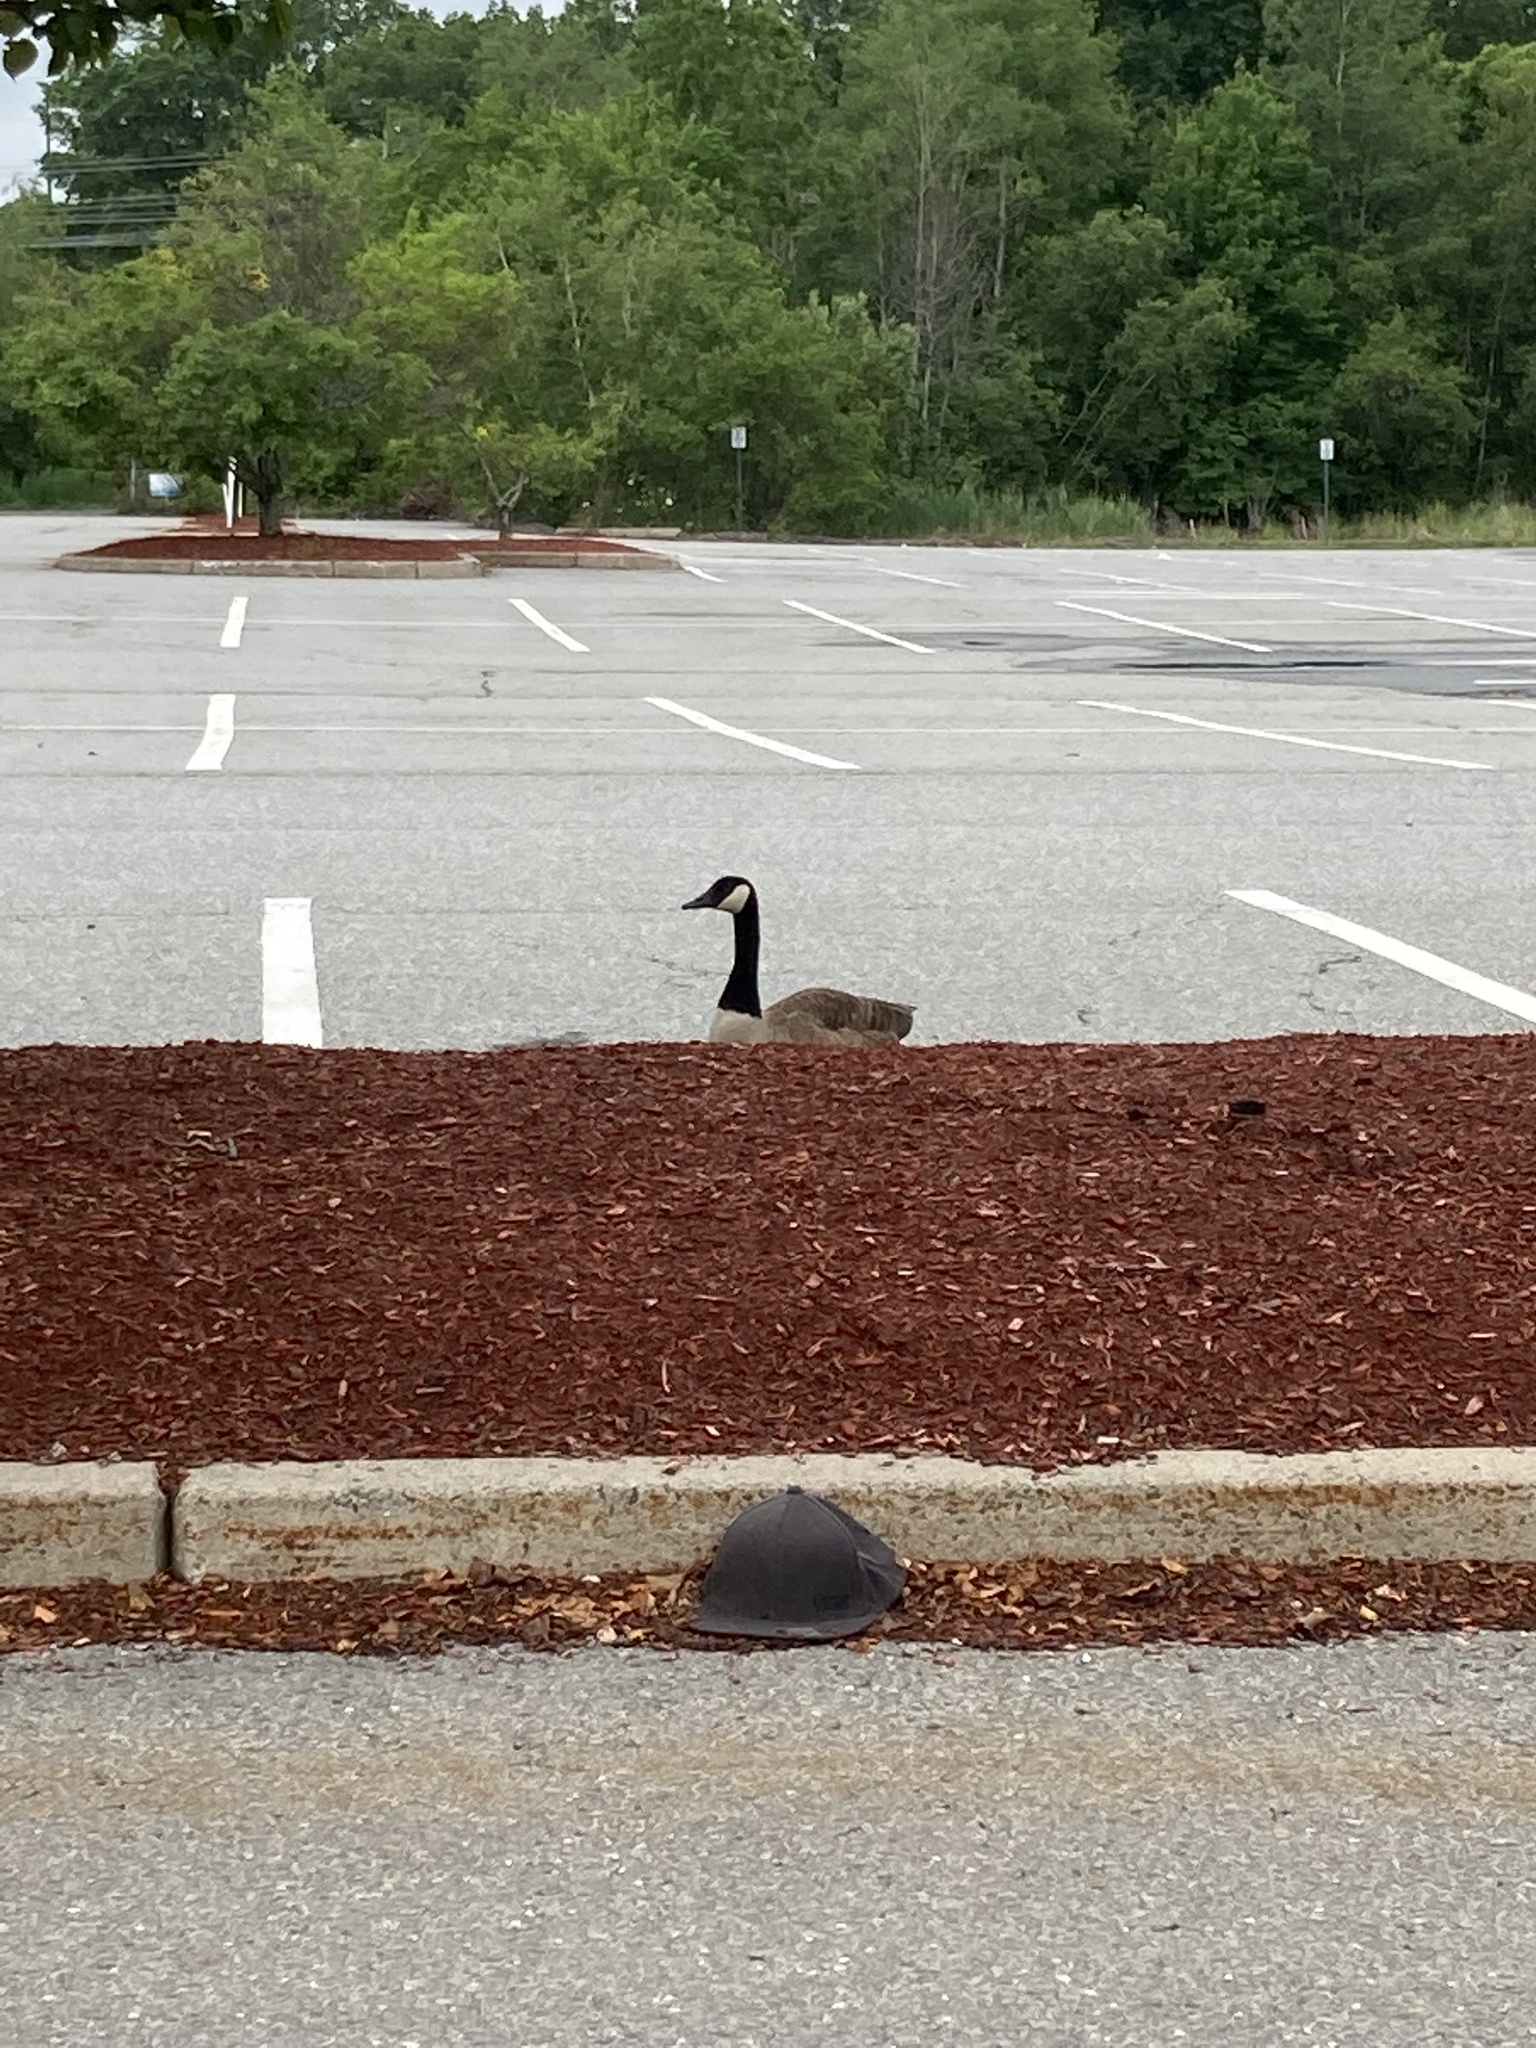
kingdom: Animalia
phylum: Chordata
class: Aves
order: Anseriformes
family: Anatidae
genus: Branta
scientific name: Branta canadensis
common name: Canada goose
